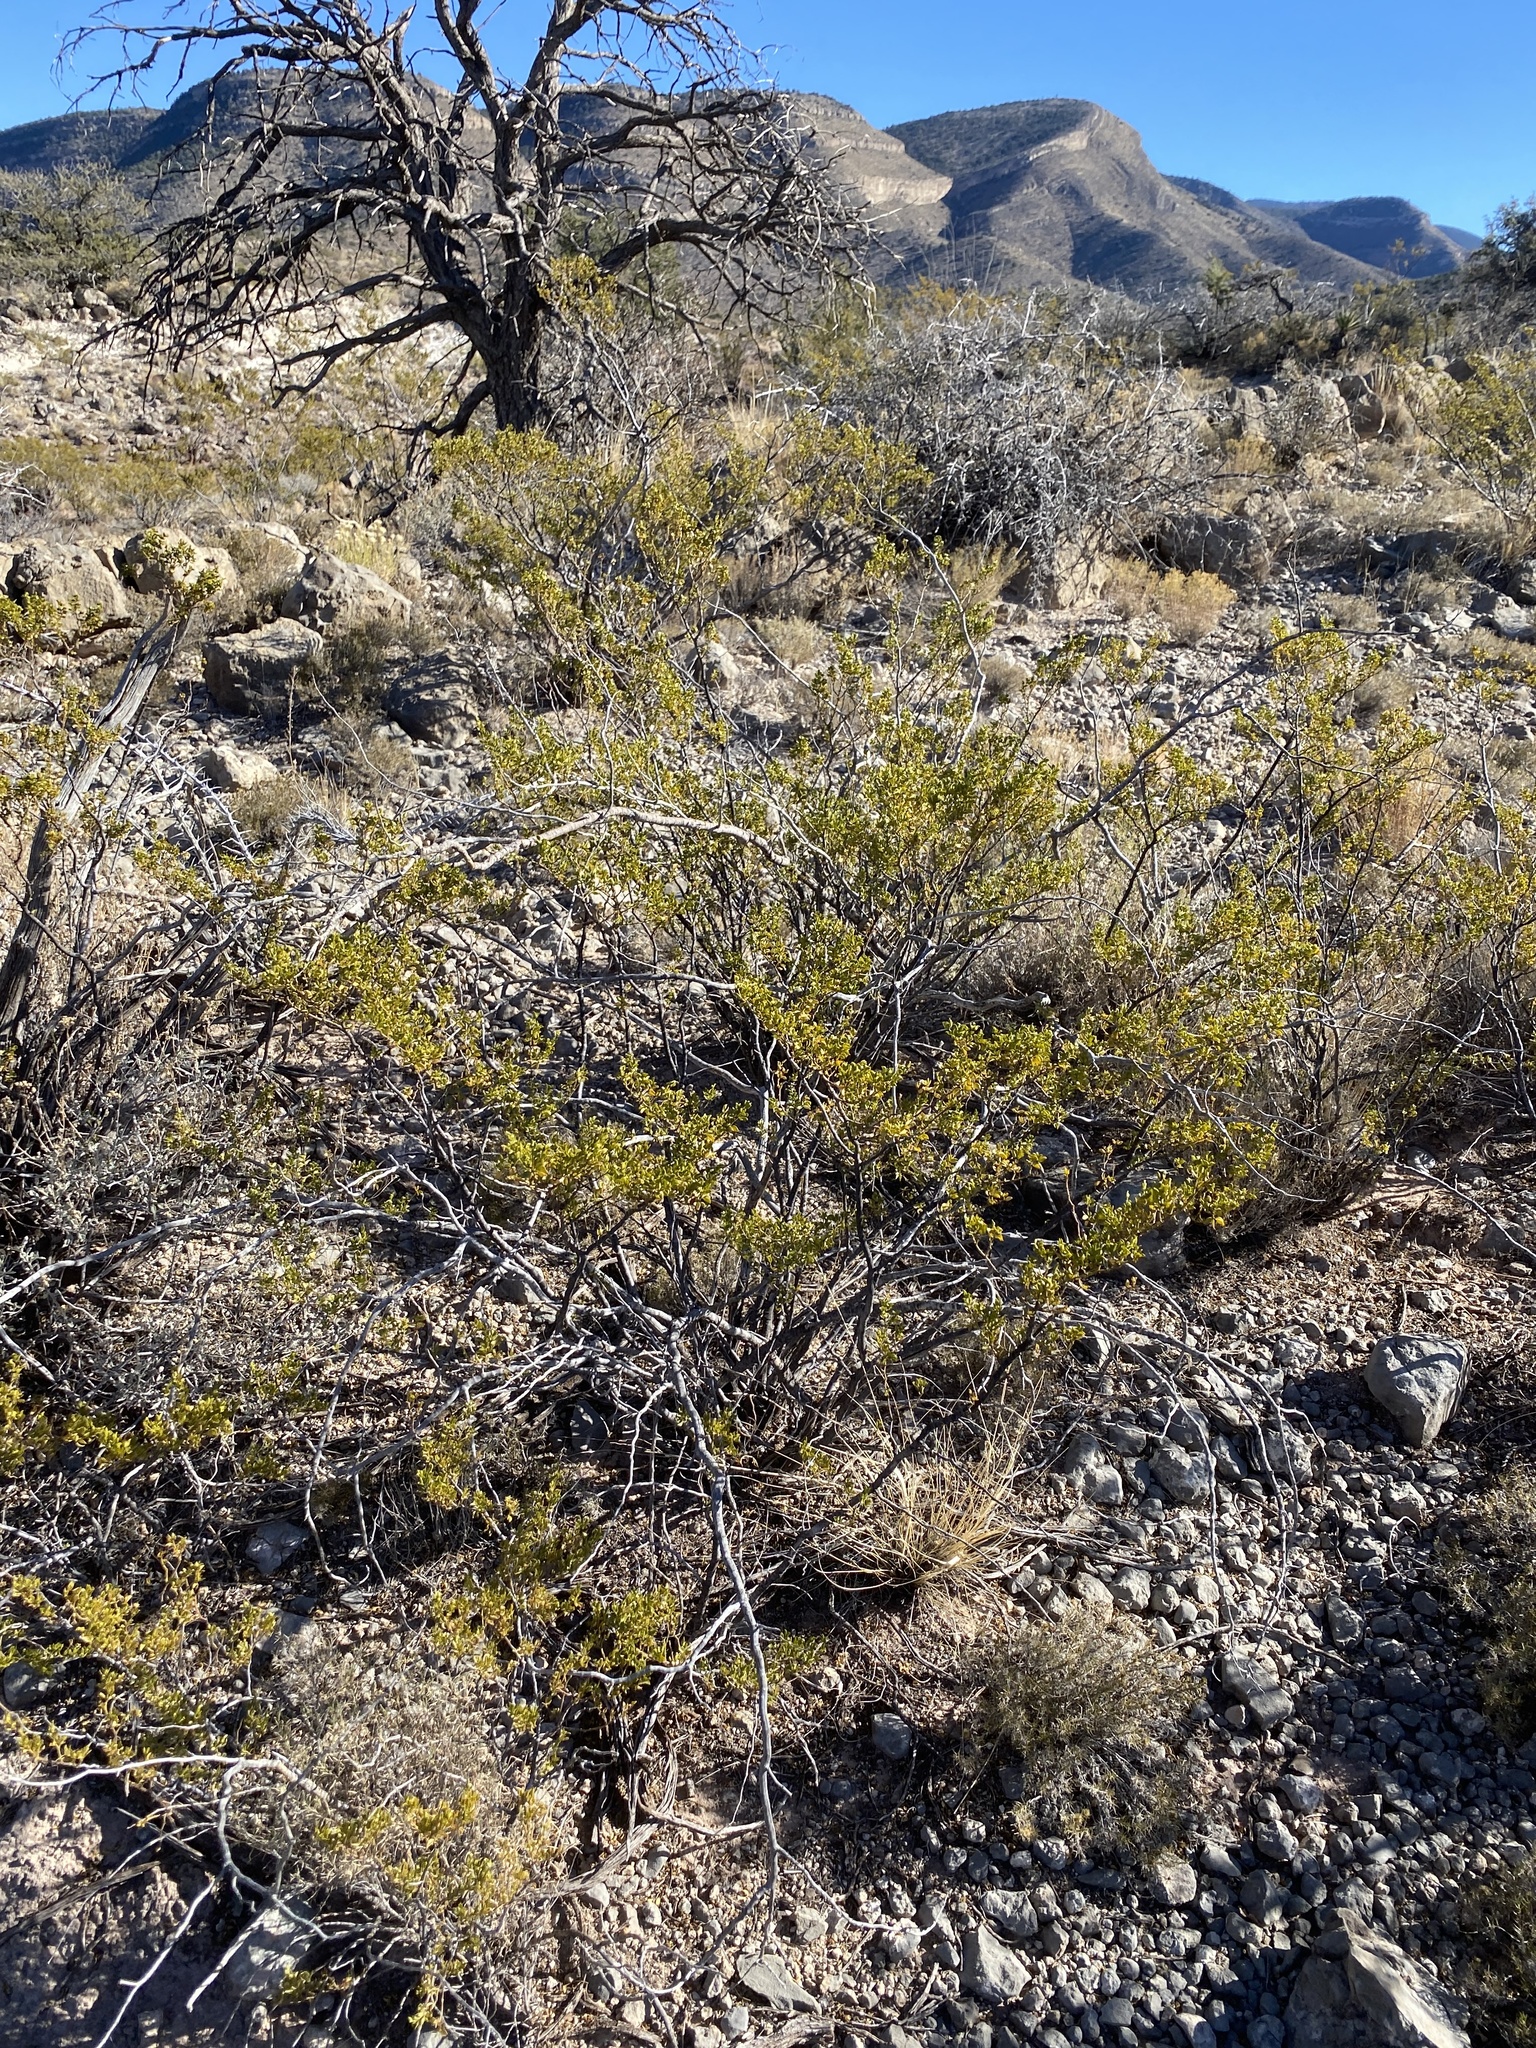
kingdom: Plantae
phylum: Tracheophyta
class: Magnoliopsida
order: Zygophyllales
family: Zygophyllaceae
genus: Larrea
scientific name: Larrea tridentata
